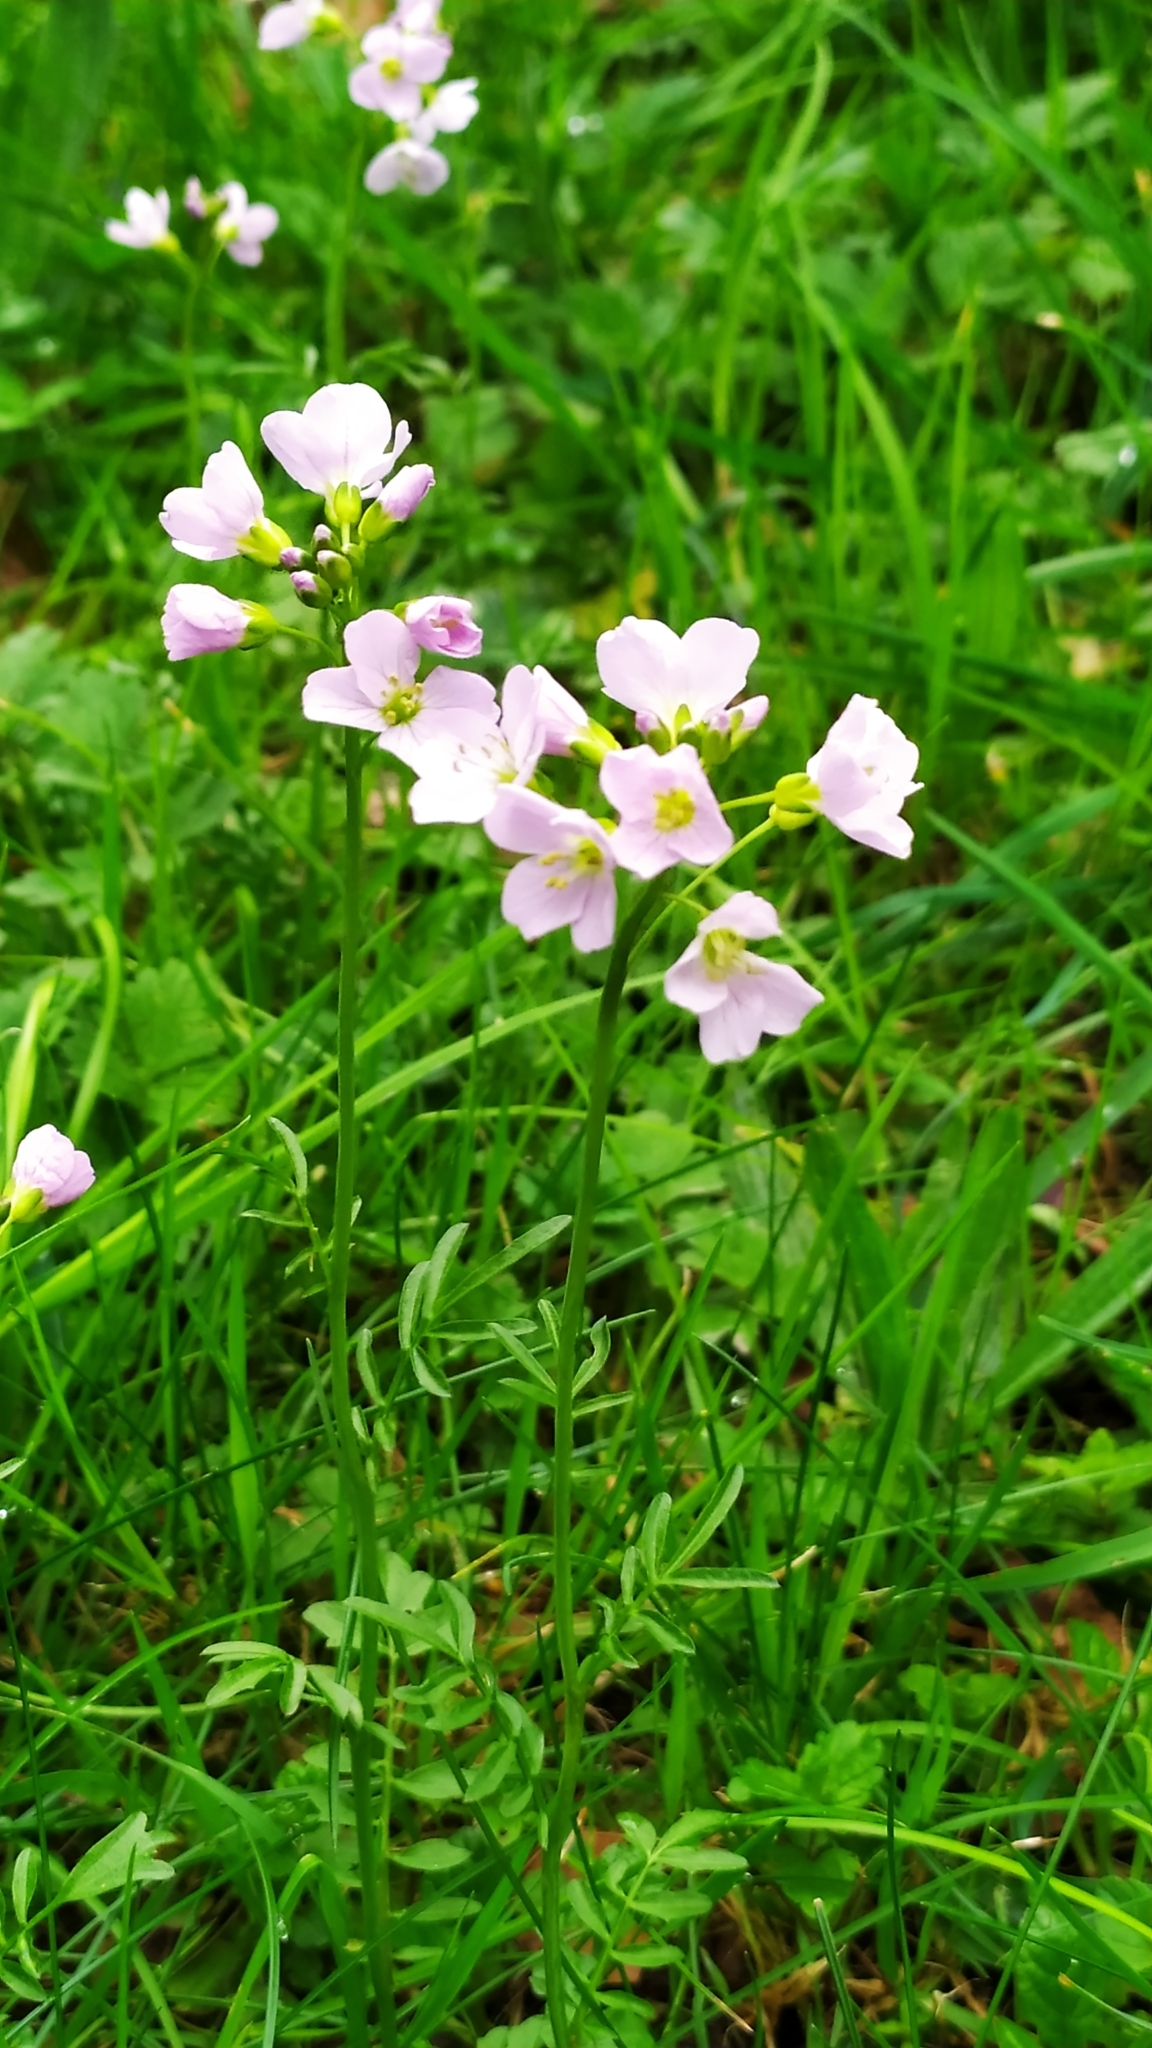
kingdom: Plantae
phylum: Tracheophyta
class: Magnoliopsida
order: Brassicales
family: Brassicaceae
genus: Cardamine
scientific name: Cardamine pratensis
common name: Cuckoo flower
